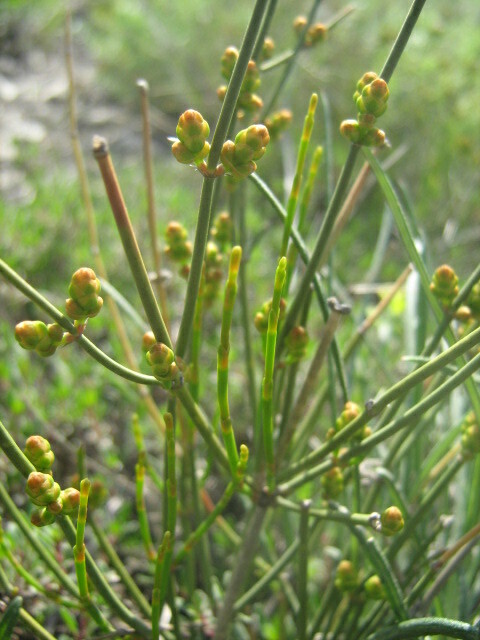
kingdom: Plantae
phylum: Tracheophyta
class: Gnetopsida
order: Ephedrales
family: Ephedraceae
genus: Ephedra
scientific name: Ephedra distachya
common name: Sea grape
